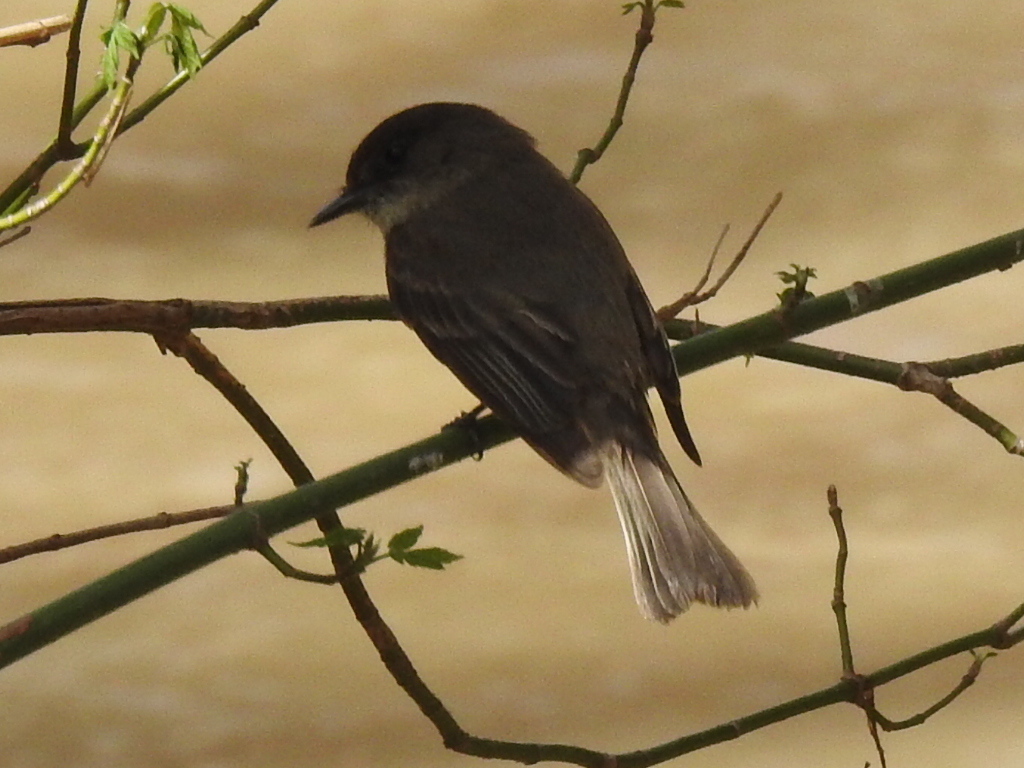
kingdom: Animalia
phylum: Chordata
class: Aves
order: Passeriformes
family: Tyrannidae
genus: Sayornis
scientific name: Sayornis phoebe
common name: Eastern phoebe
